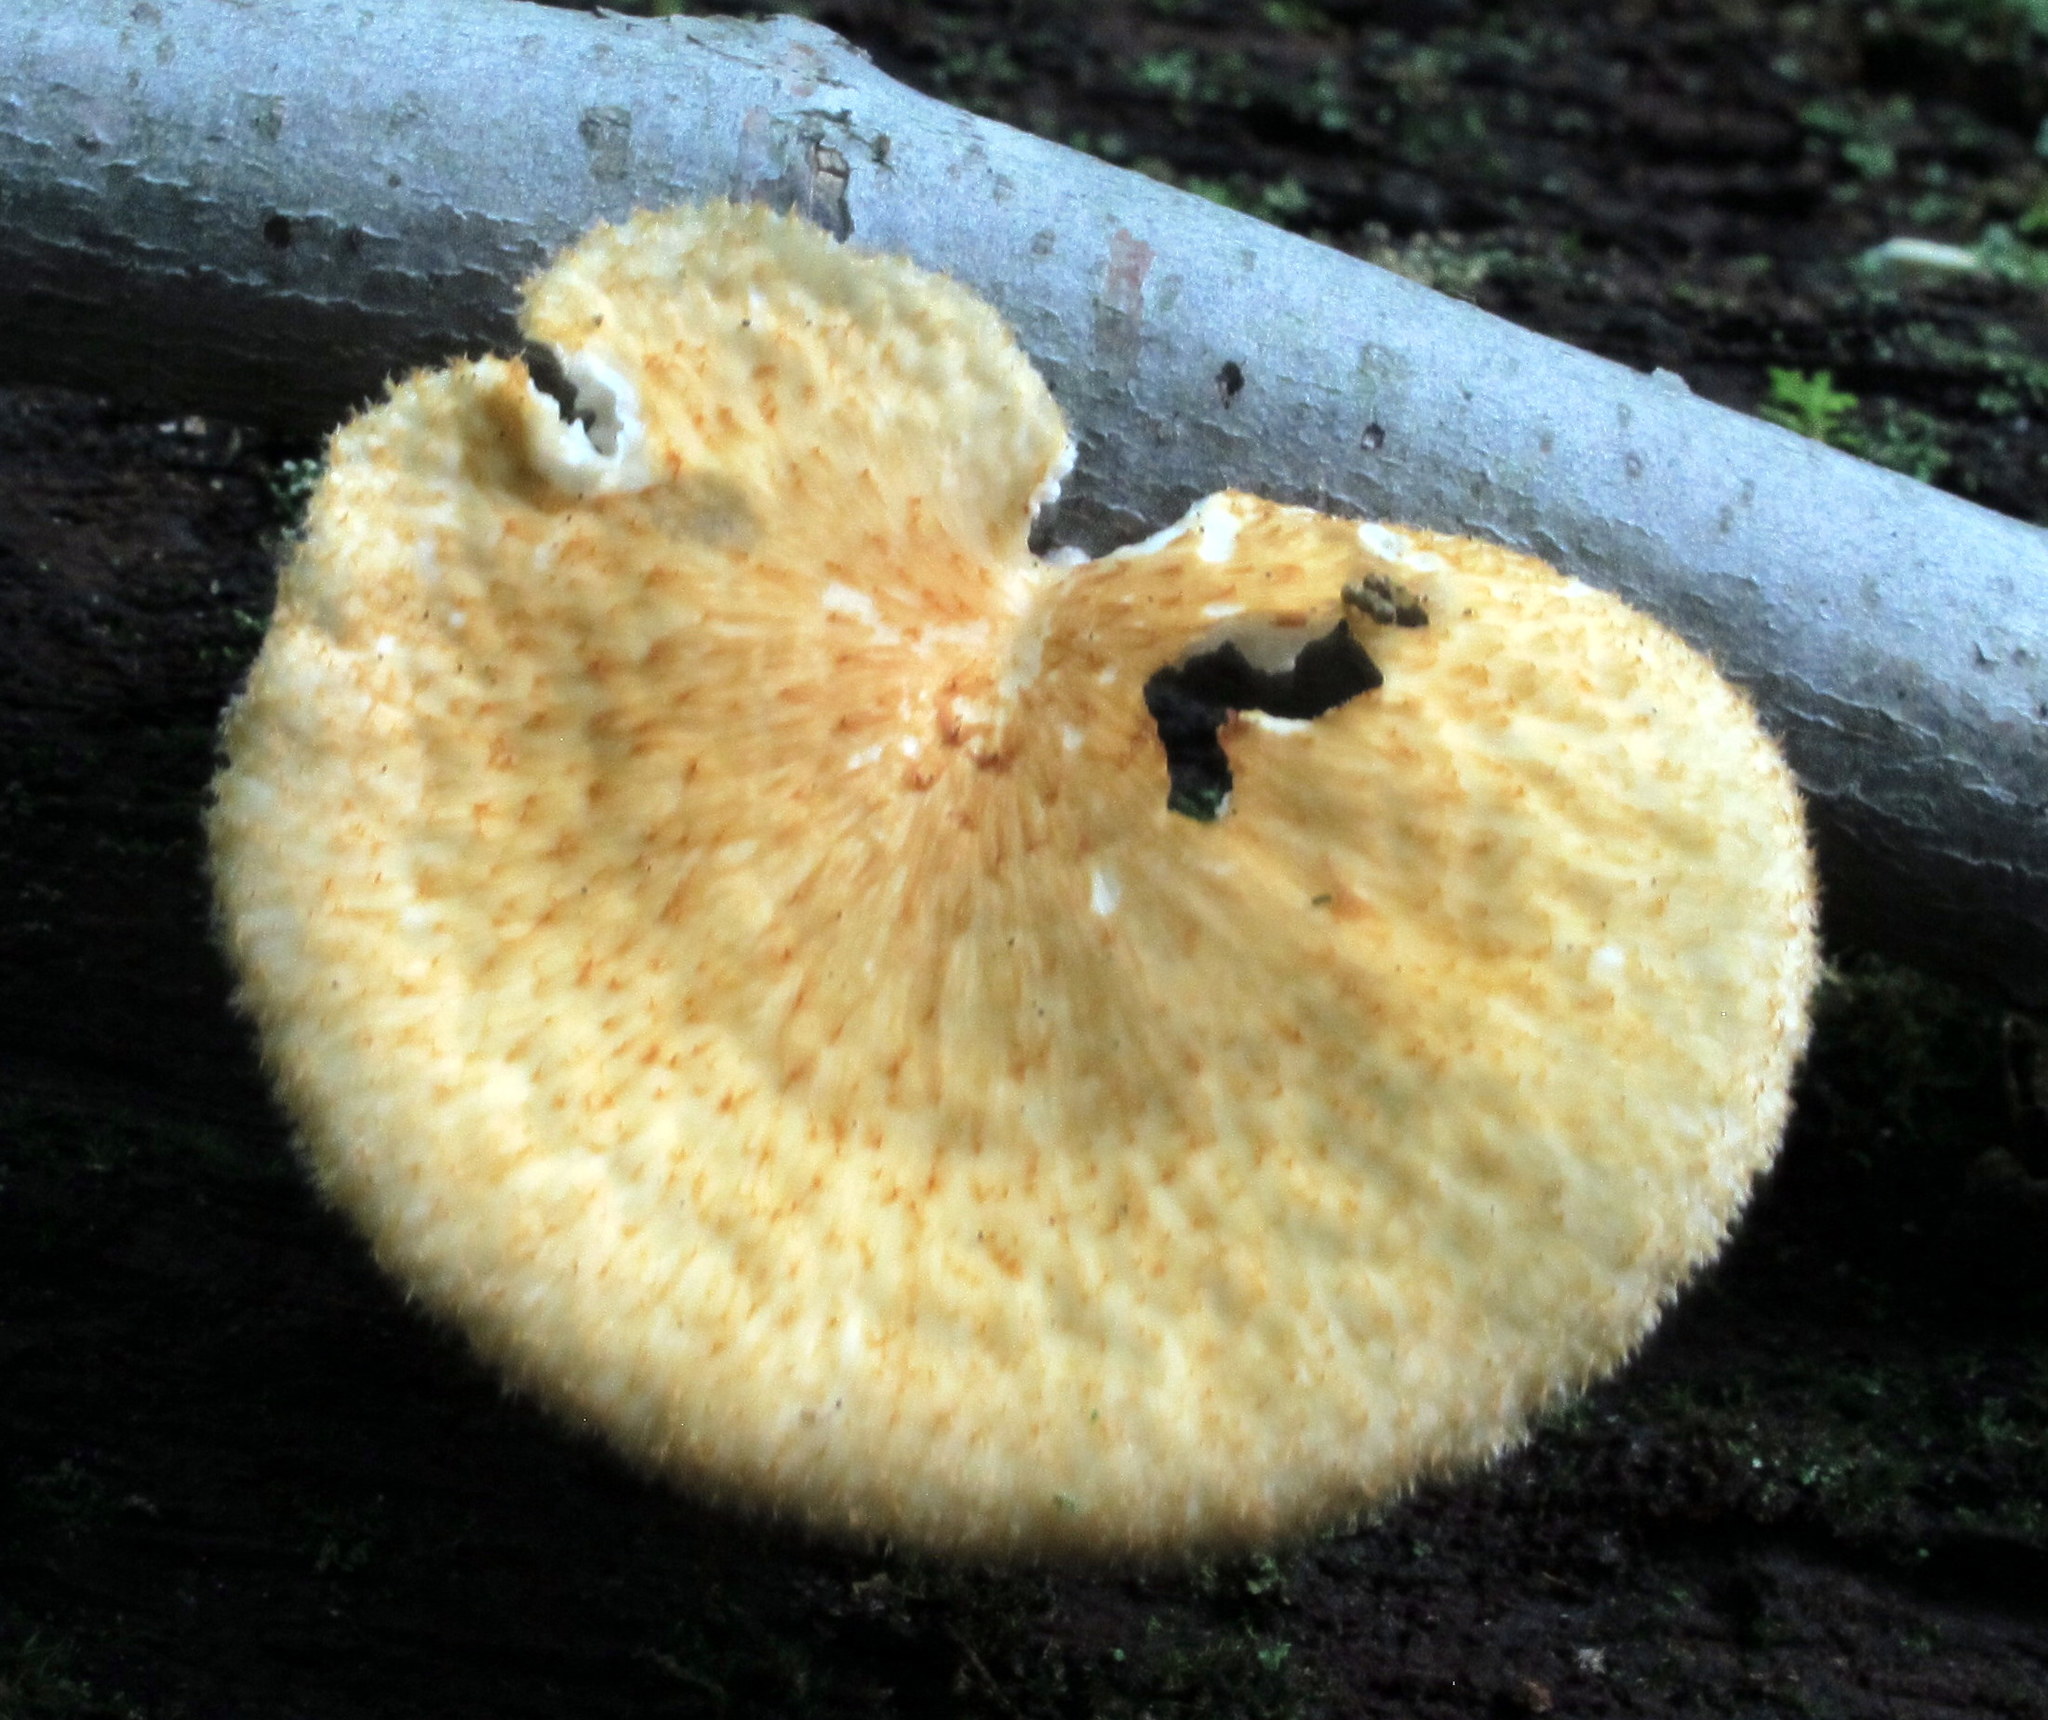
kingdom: Fungi
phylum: Basidiomycota
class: Agaricomycetes
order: Polyporales
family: Polyporaceae
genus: Neofavolus
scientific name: Neofavolus alveolaris
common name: Hexagonal-pored polypore
